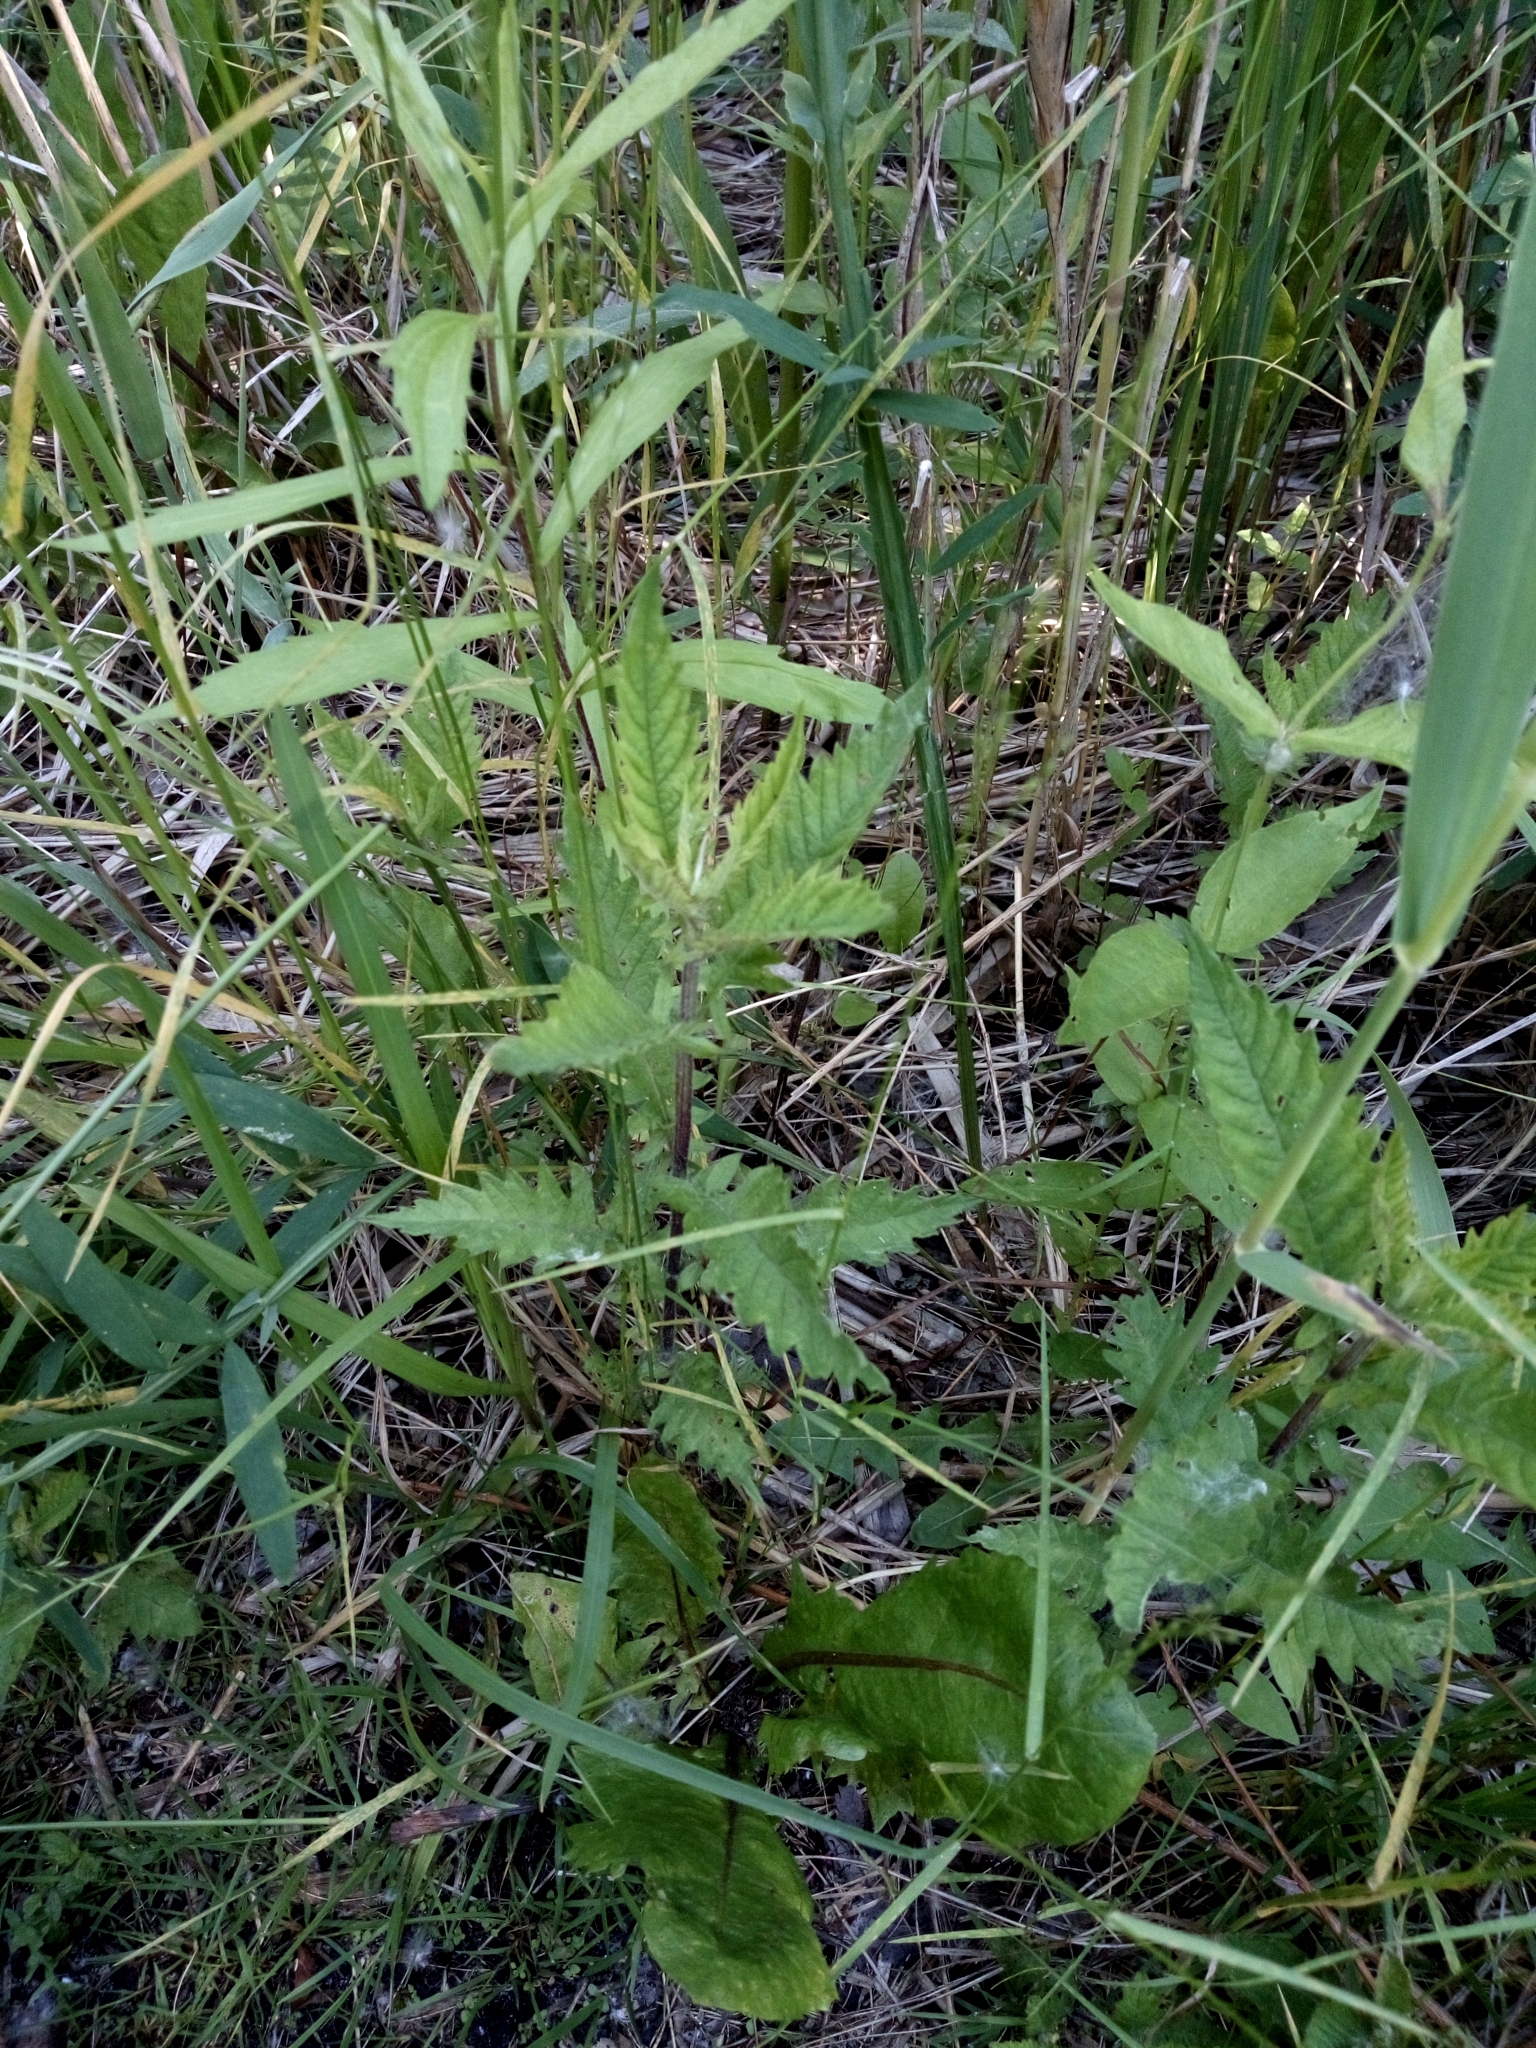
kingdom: Plantae
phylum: Tracheophyta
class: Magnoliopsida
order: Lamiales
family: Lamiaceae
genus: Lycopus
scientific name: Lycopus europaeus
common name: European bugleweed
